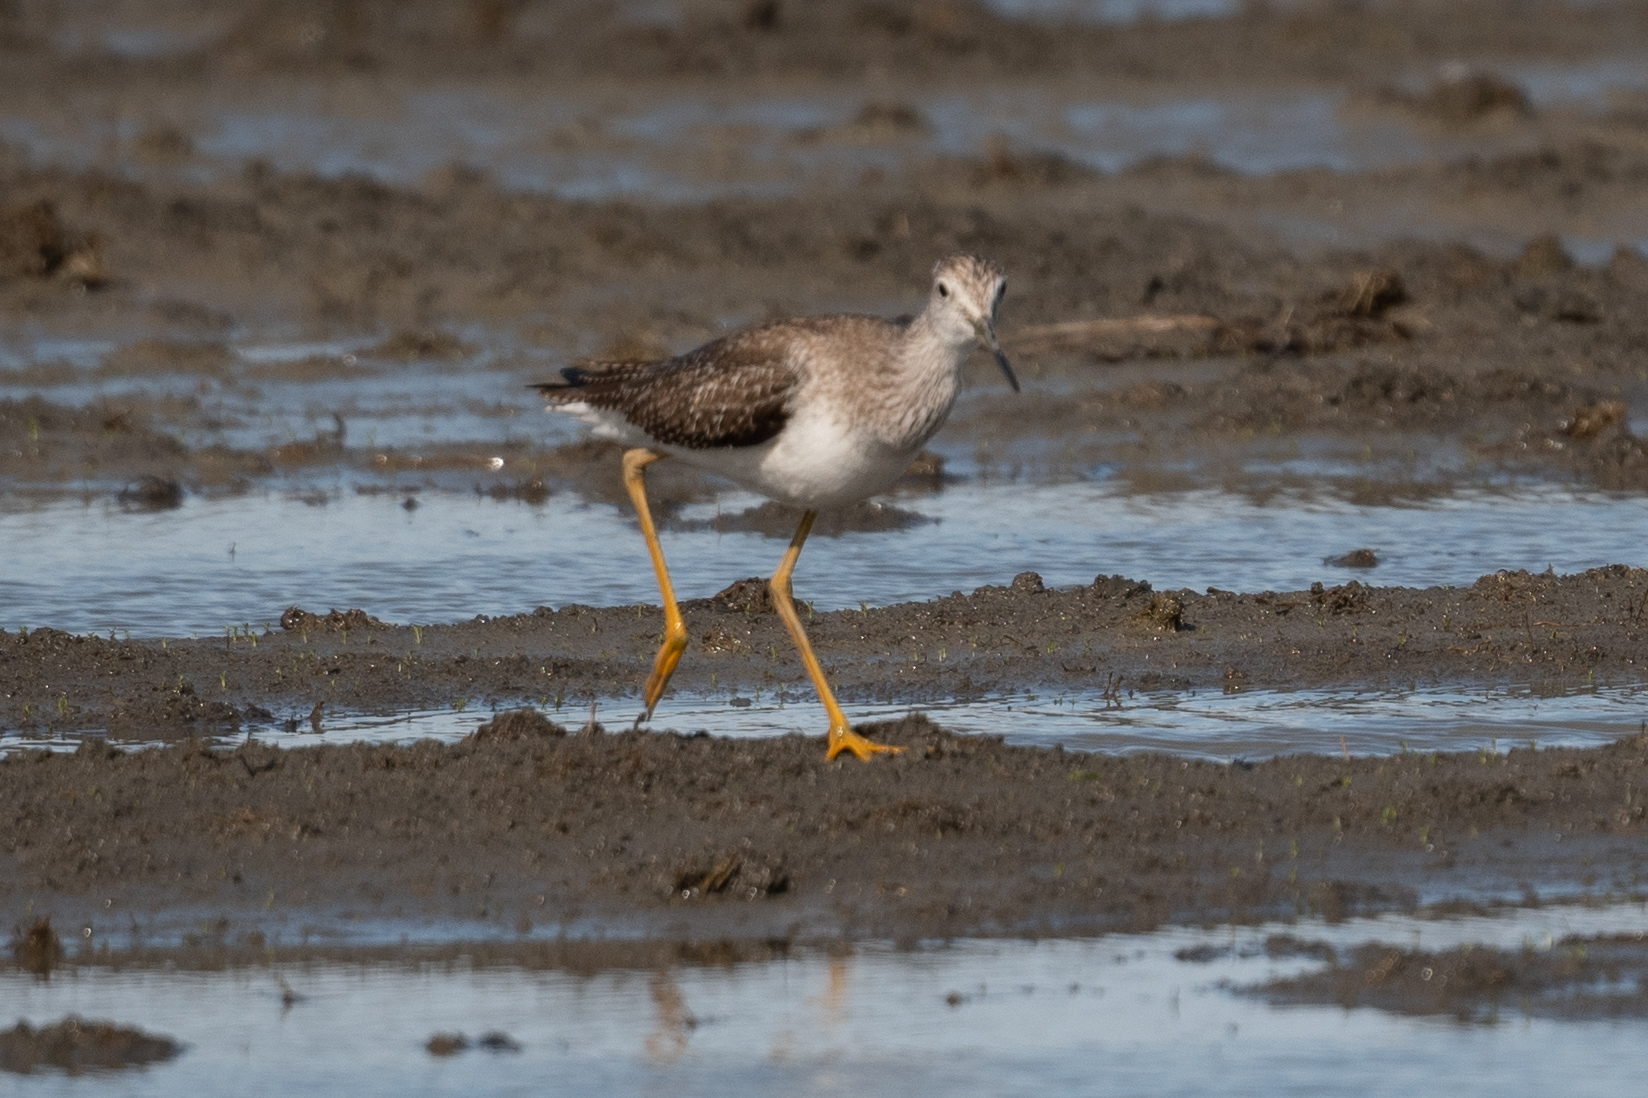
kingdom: Animalia
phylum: Chordata
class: Aves
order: Charadriiformes
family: Scolopacidae
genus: Tringa
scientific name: Tringa melanoleuca
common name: Greater yellowlegs
